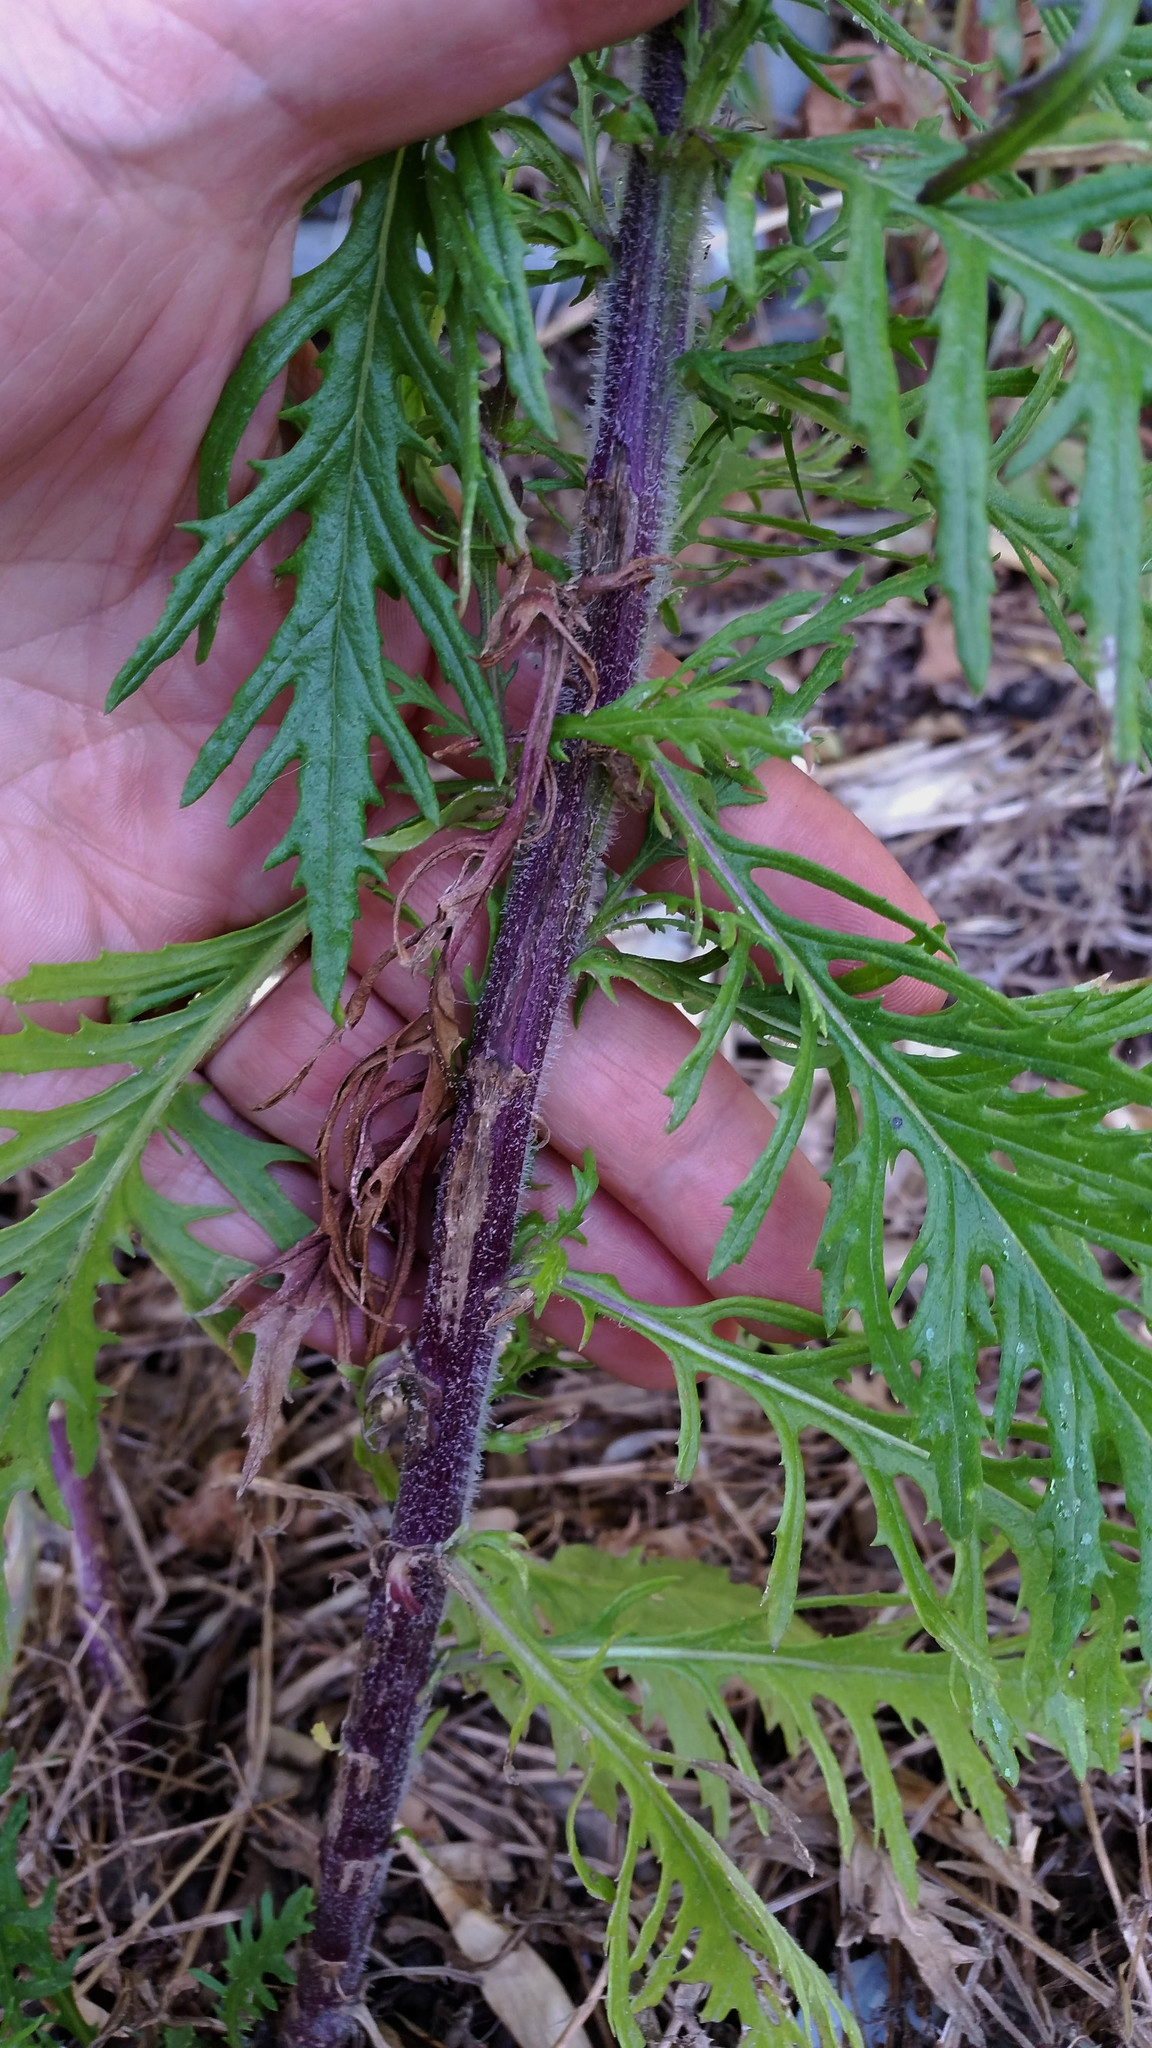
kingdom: Plantae
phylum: Tracheophyta
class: Magnoliopsida
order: Asterales
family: Asteraceae
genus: Senecio
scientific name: Senecio esleri
